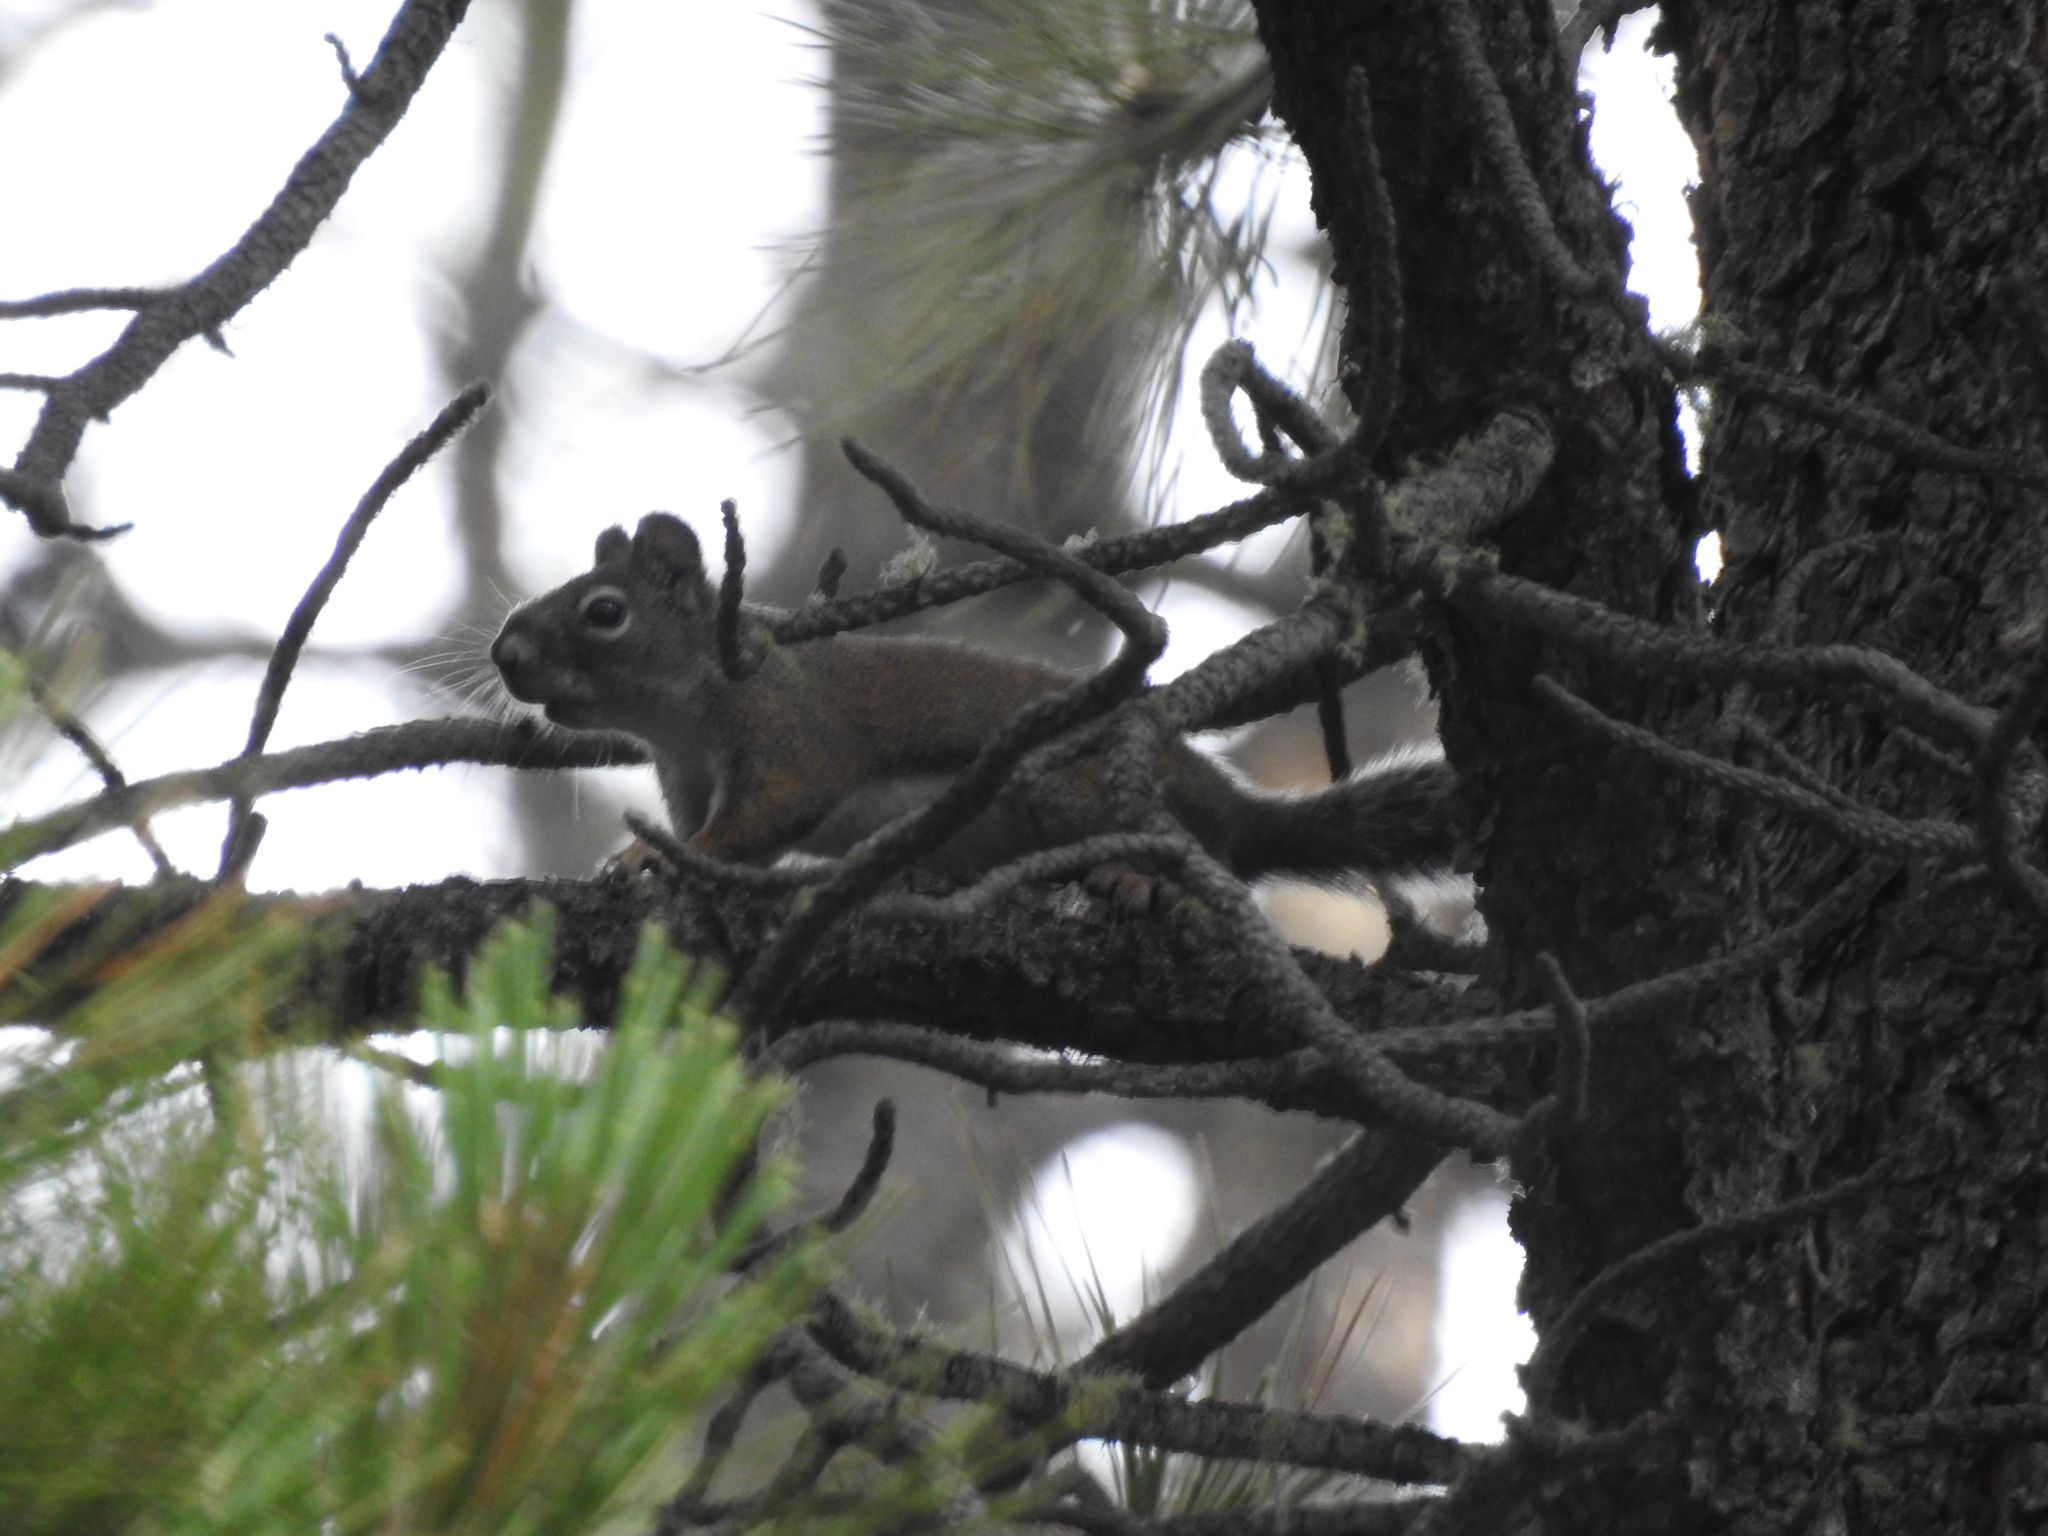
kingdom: Animalia
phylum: Chordata
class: Mammalia
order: Rodentia
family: Sciuridae
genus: Tamiasciurus
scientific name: Tamiasciurus hudsonicus
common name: Red squirrel
